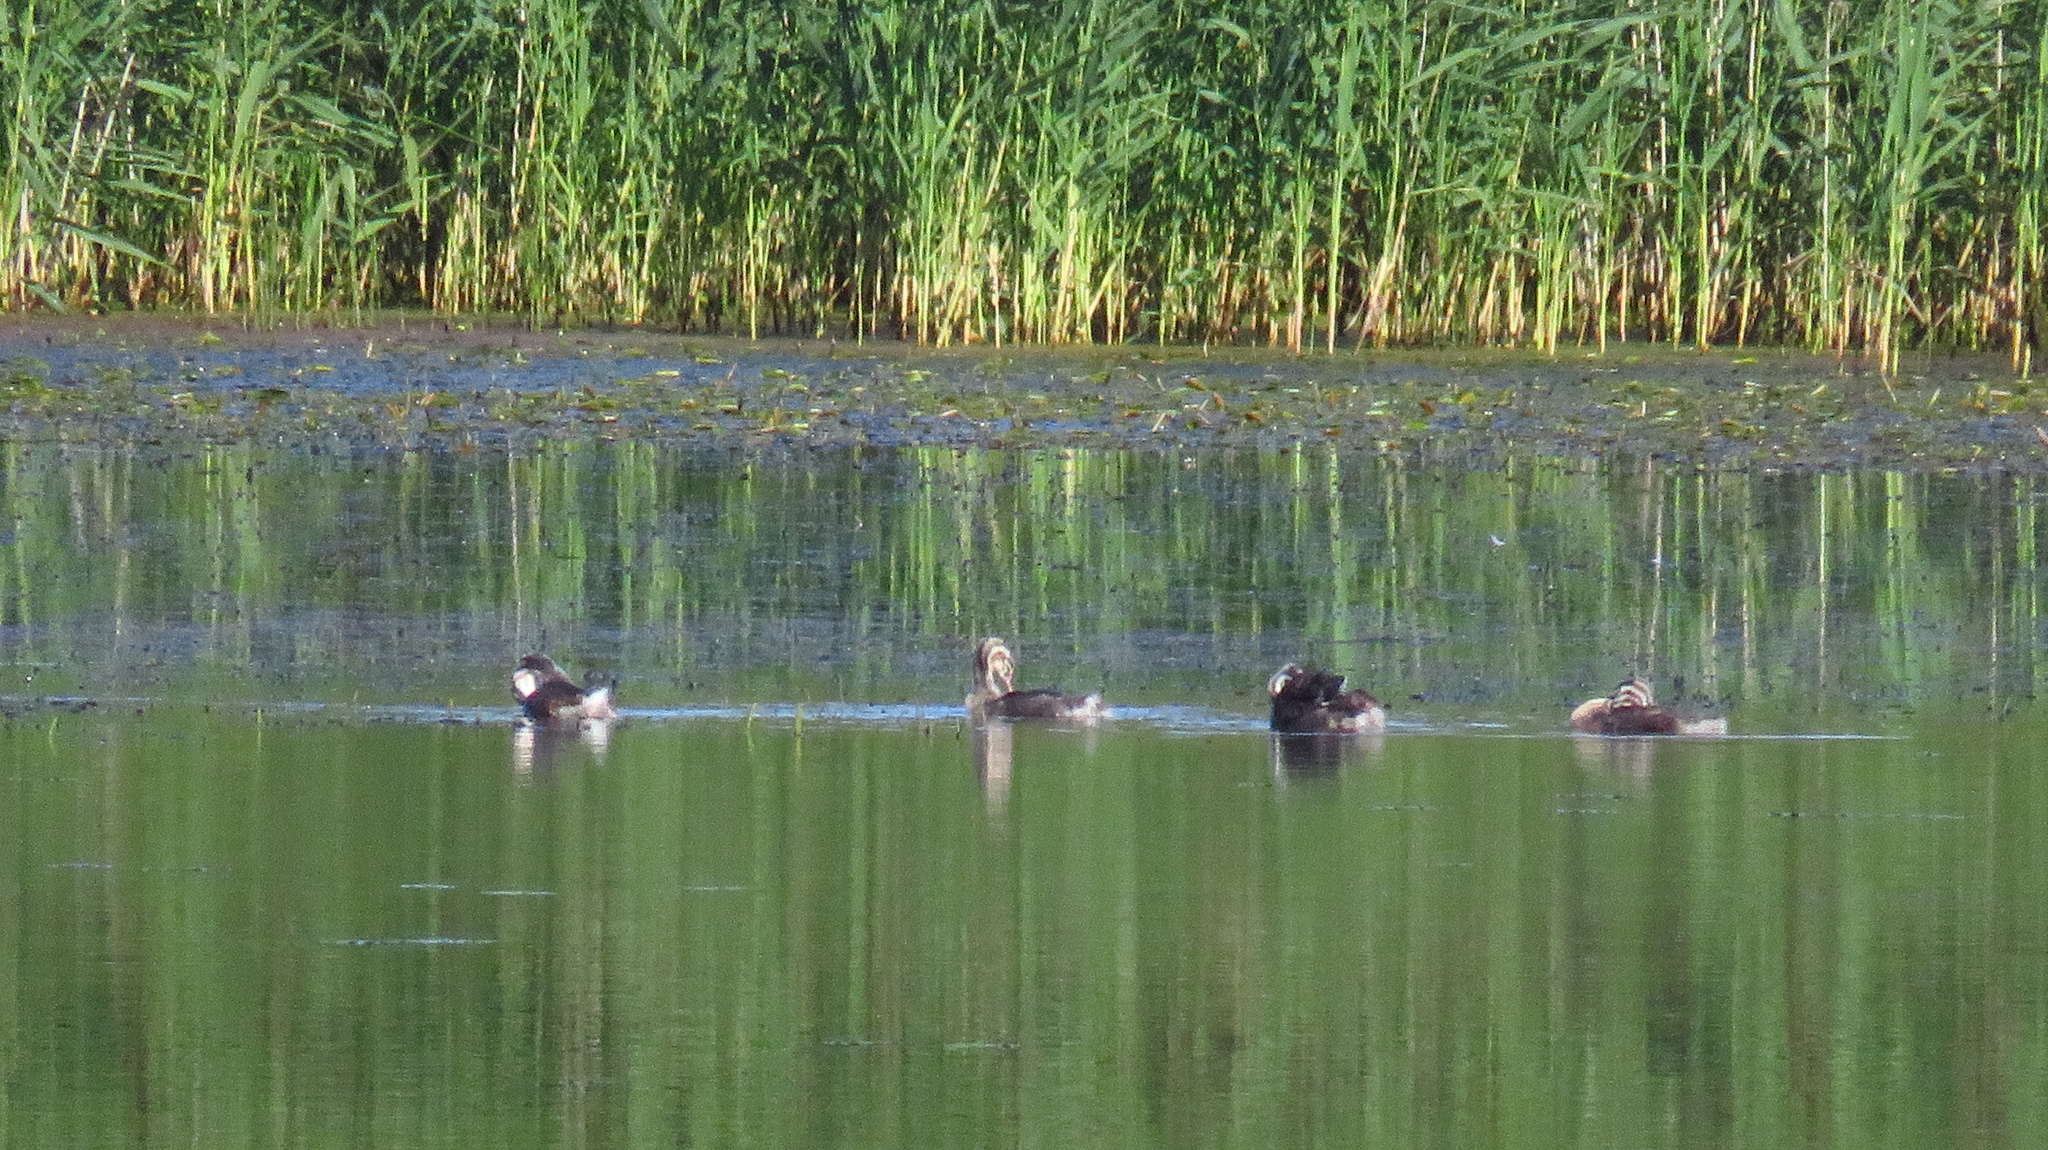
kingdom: Animalia
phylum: Chordata
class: Aves
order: Podicipediformes
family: Podicipedidae
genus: Podiceps
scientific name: Podiceps cristatus
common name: Great crested grebe
